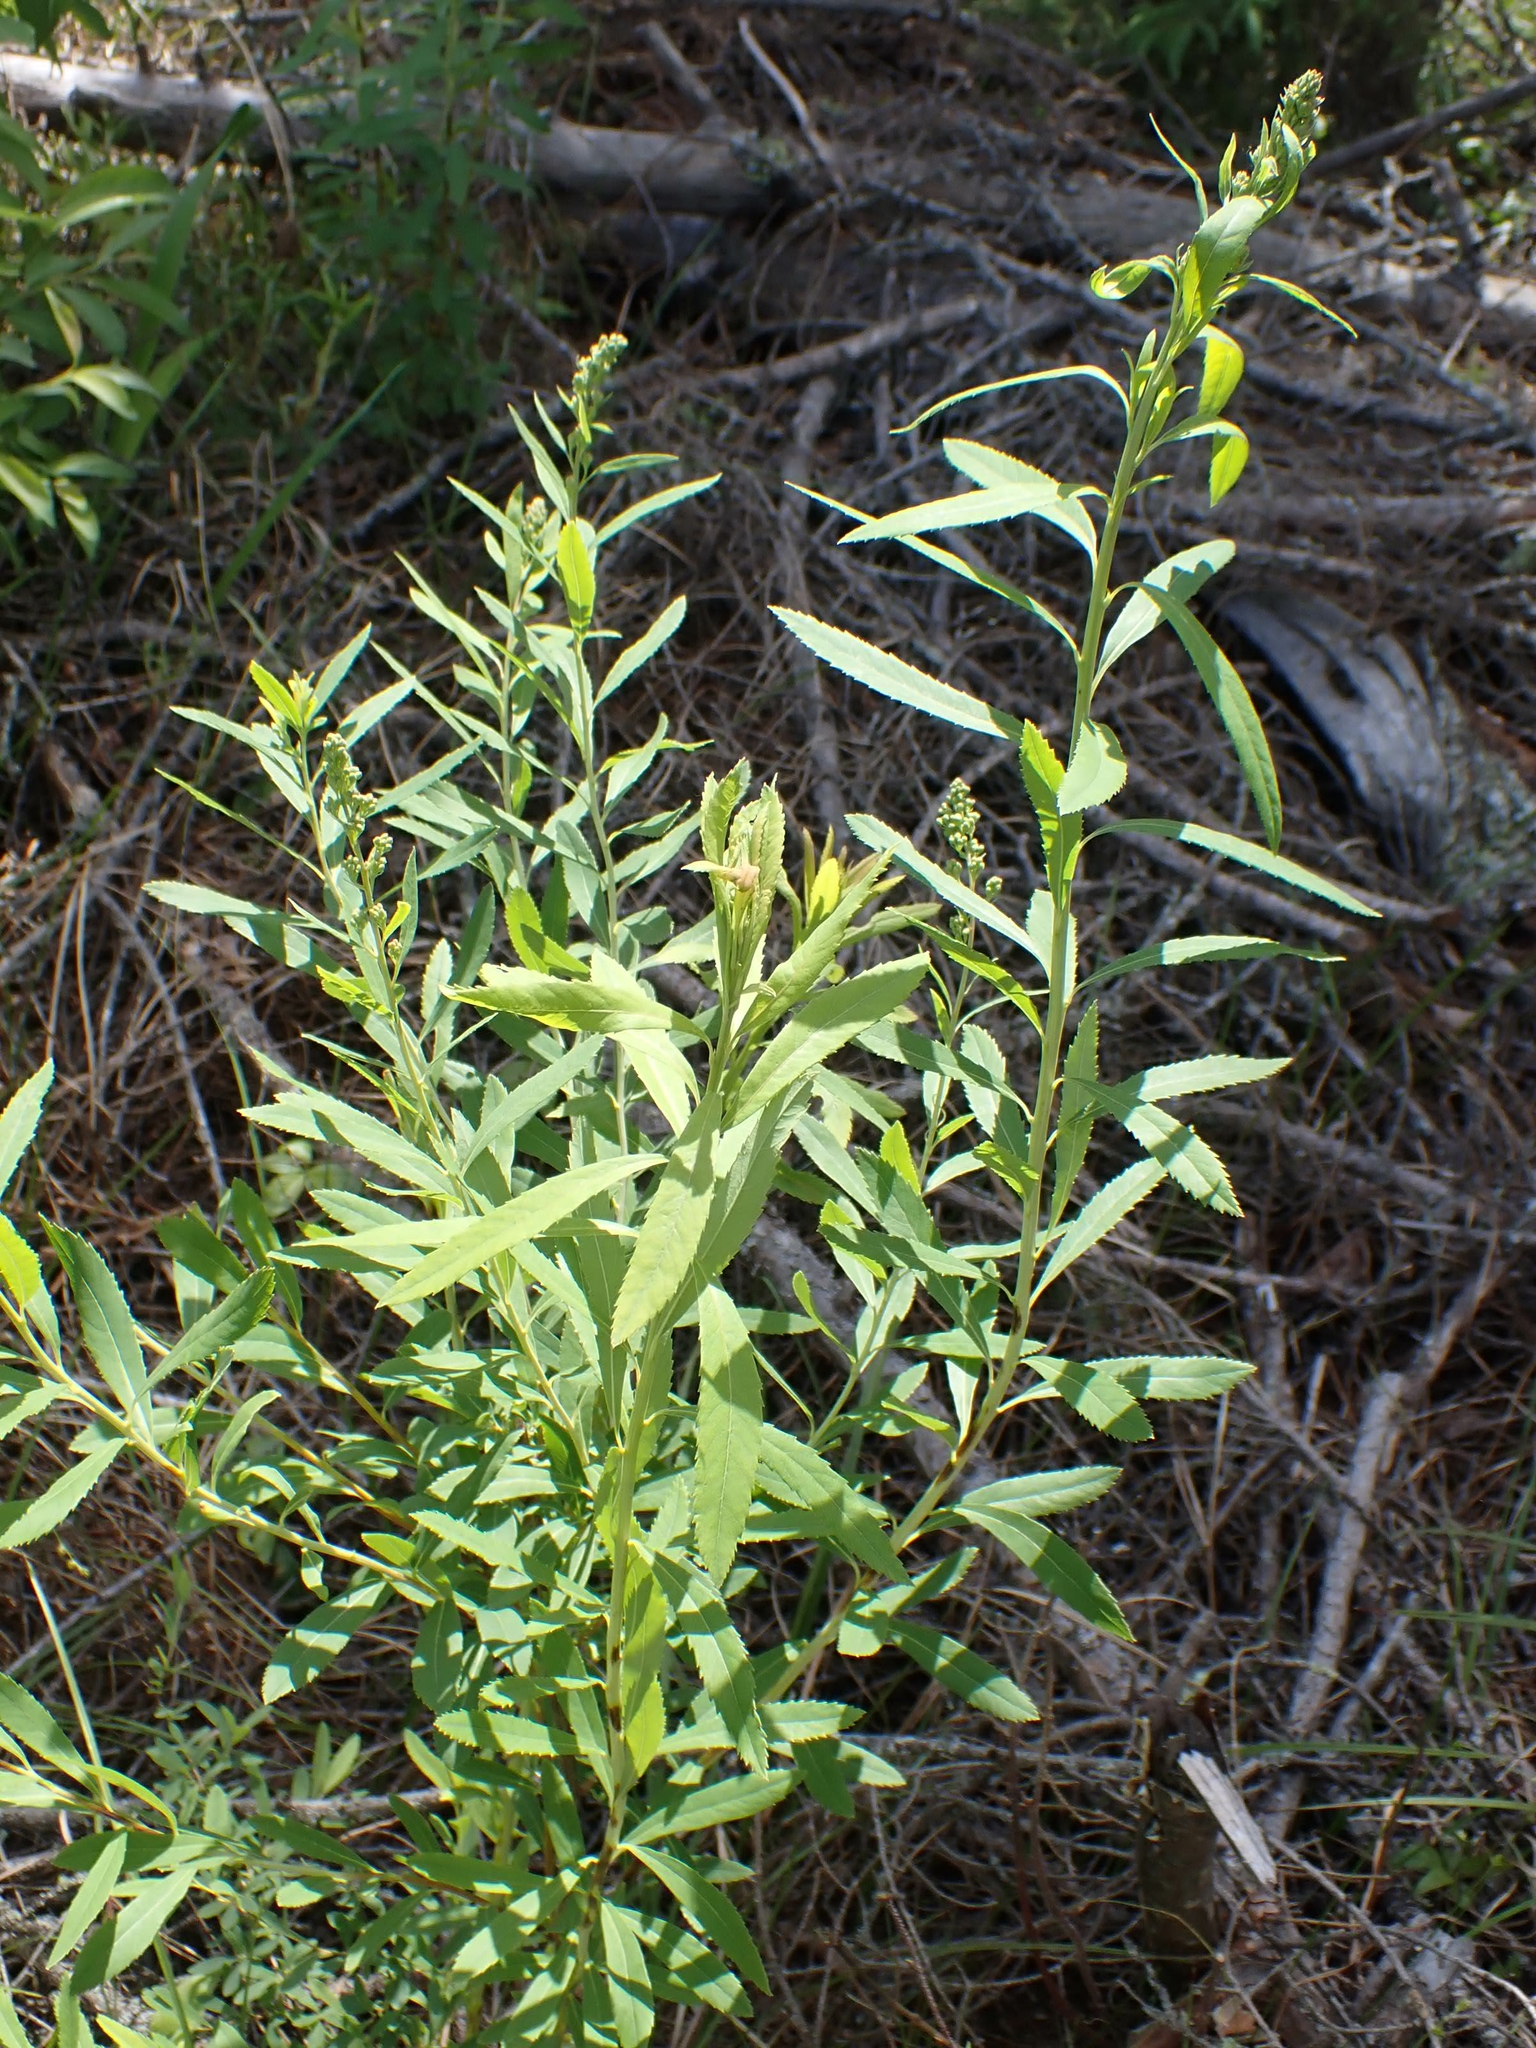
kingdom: Plantae
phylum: Tracheophyta
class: Magnoliopsida
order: Rosales
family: Rosaceae
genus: Spiraea
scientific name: Spiraea alba
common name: Pale bridewort
